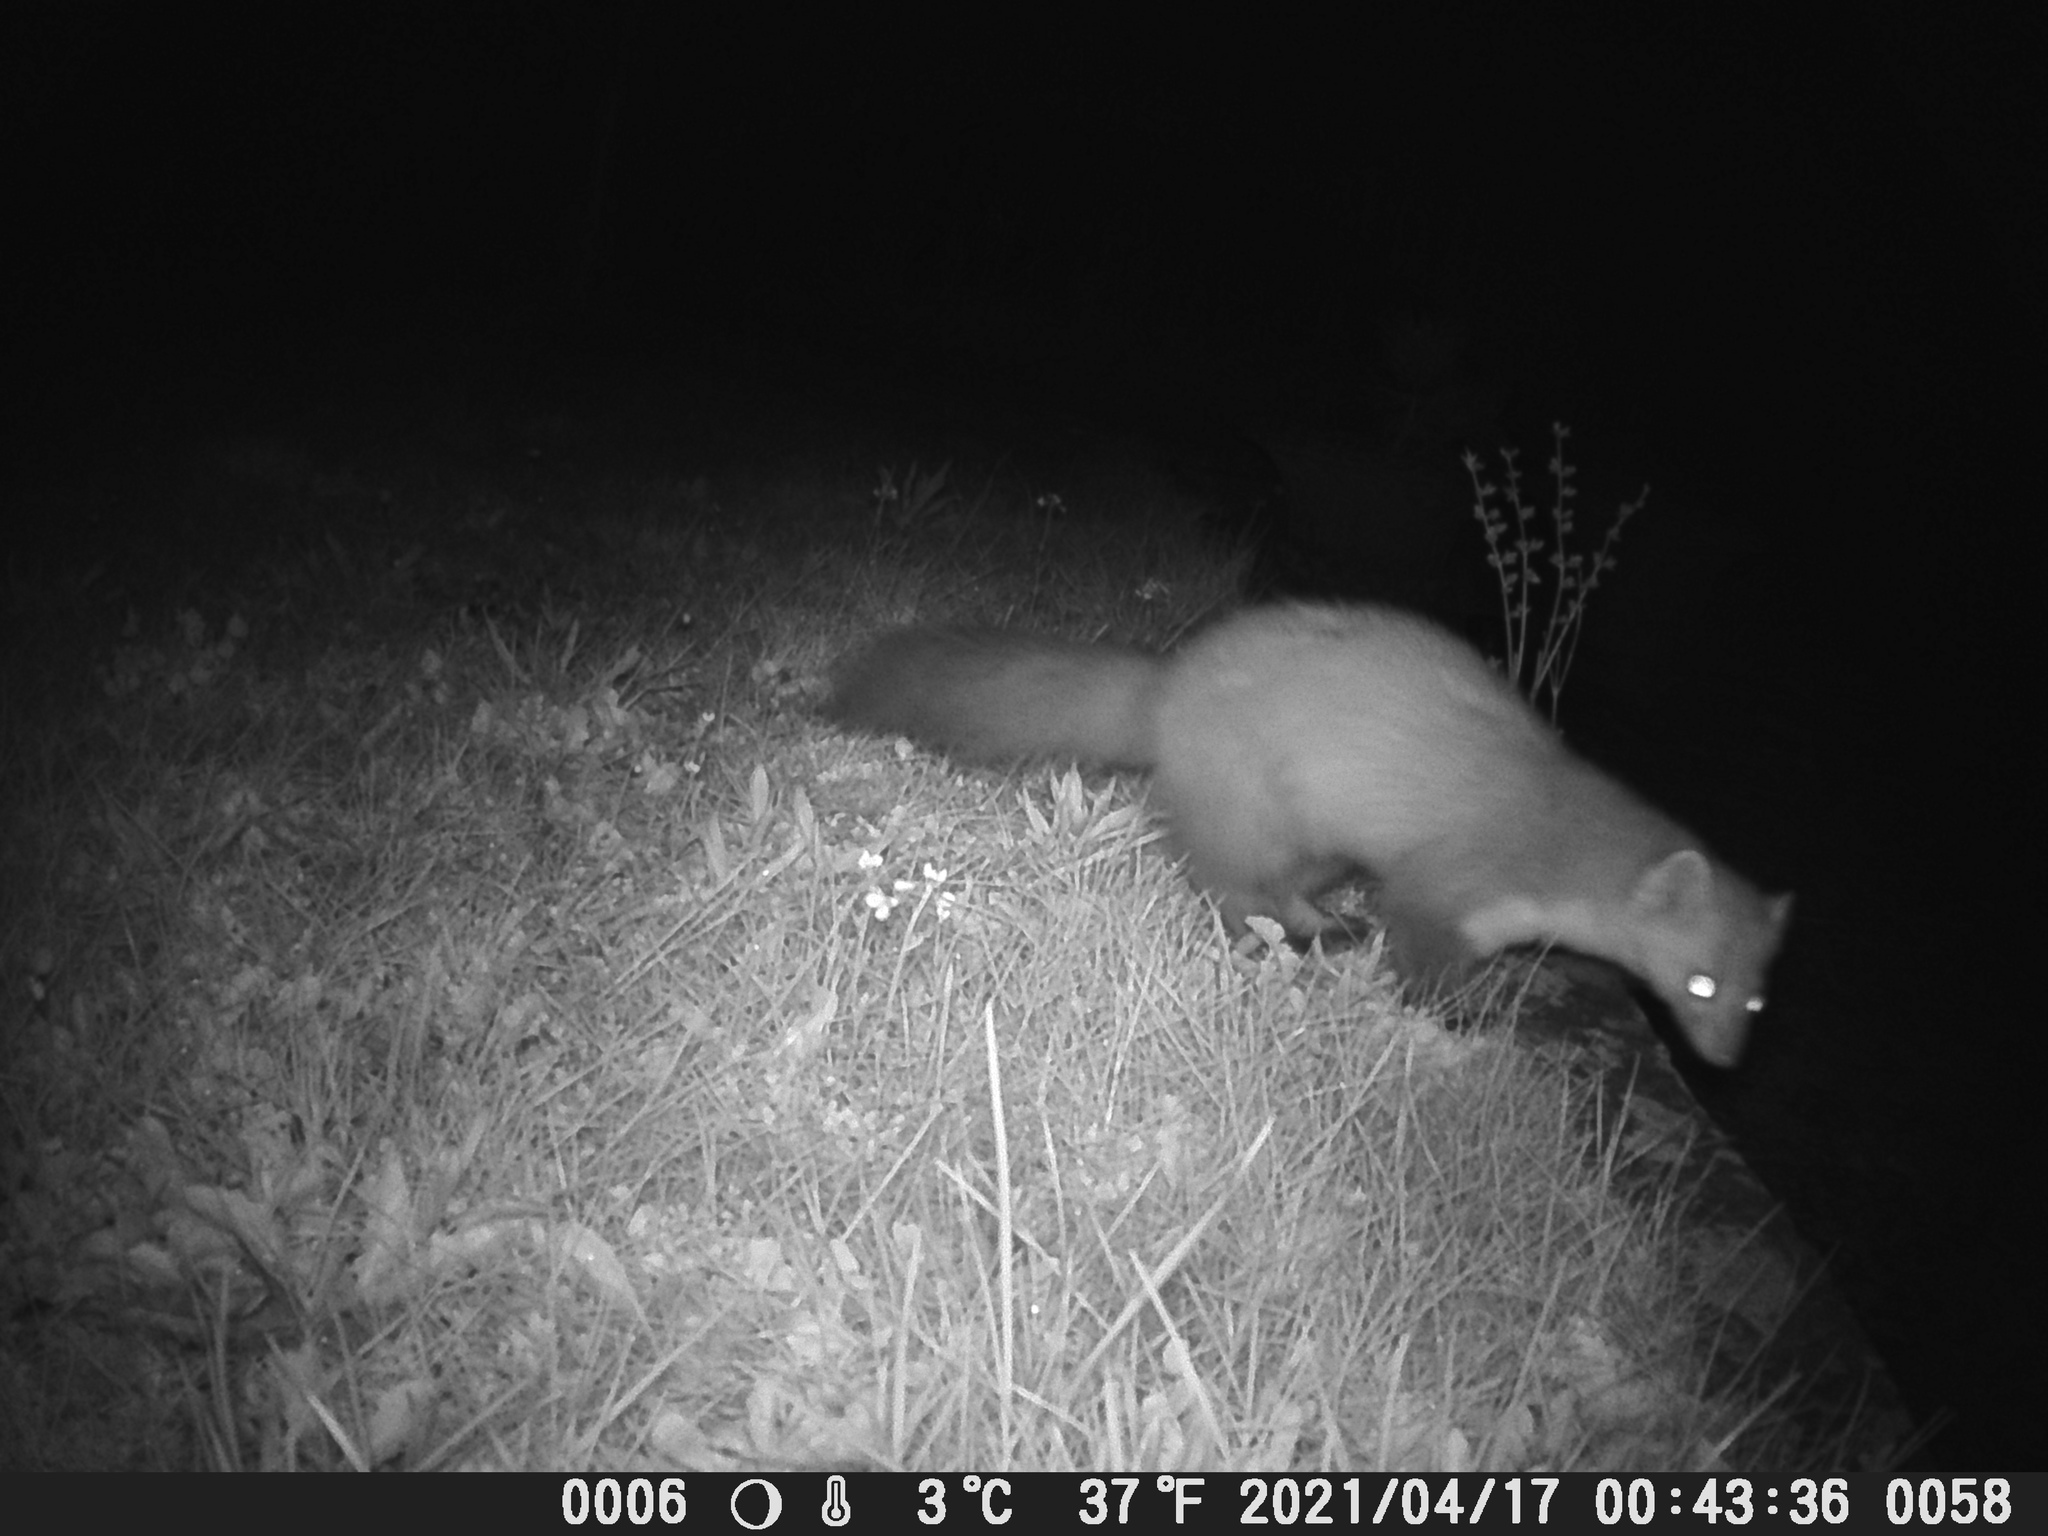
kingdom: Animalia
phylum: Chordata
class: Mammalia
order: Carnivora
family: Mustelidae
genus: Martes
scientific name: Martes foina
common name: Beech marten
